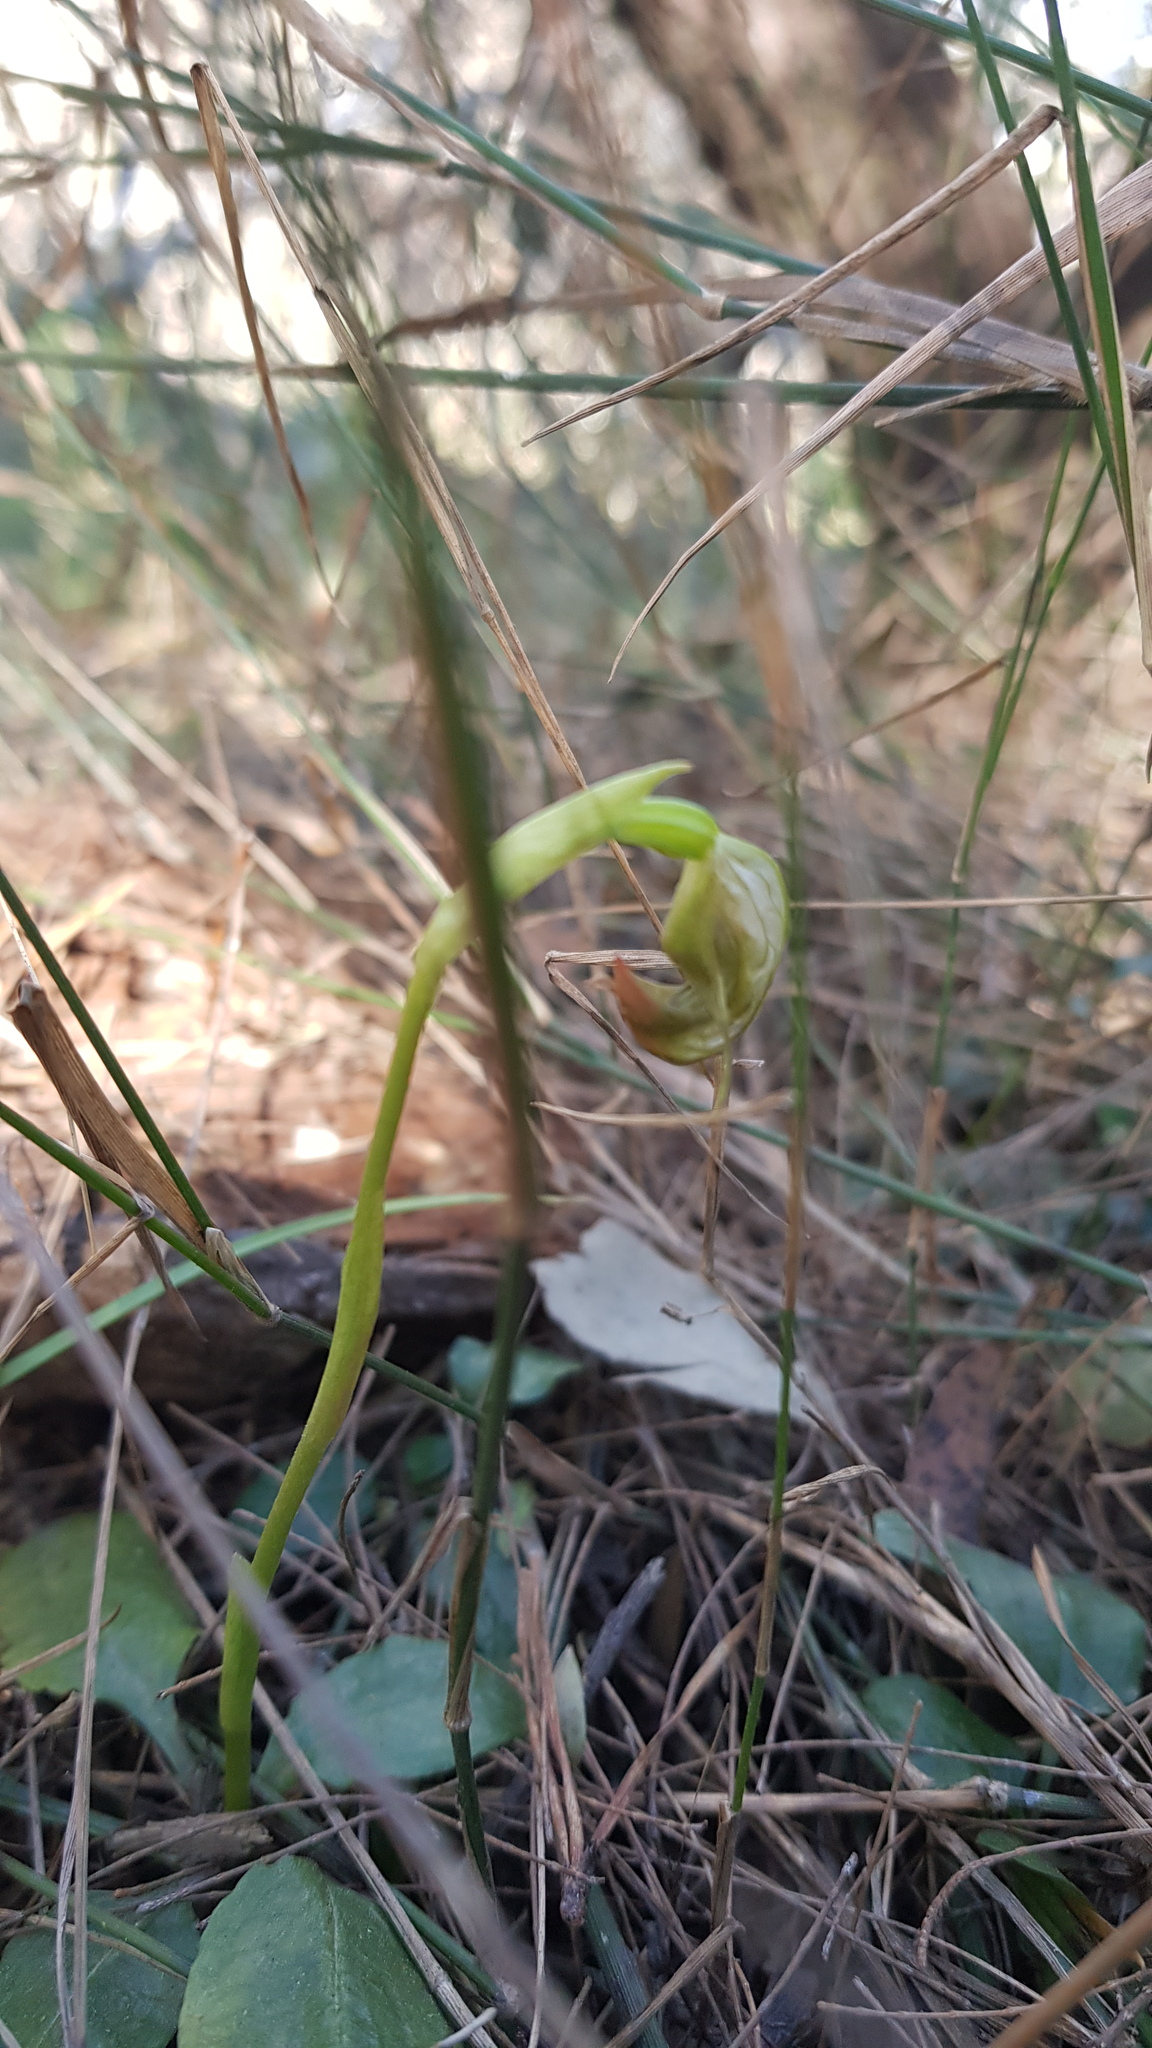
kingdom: Plantae
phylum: Tracheophyta
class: Liliopsida
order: Asparagales
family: Orchidaceae
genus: Pterostylis
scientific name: Pterostylis nutans
